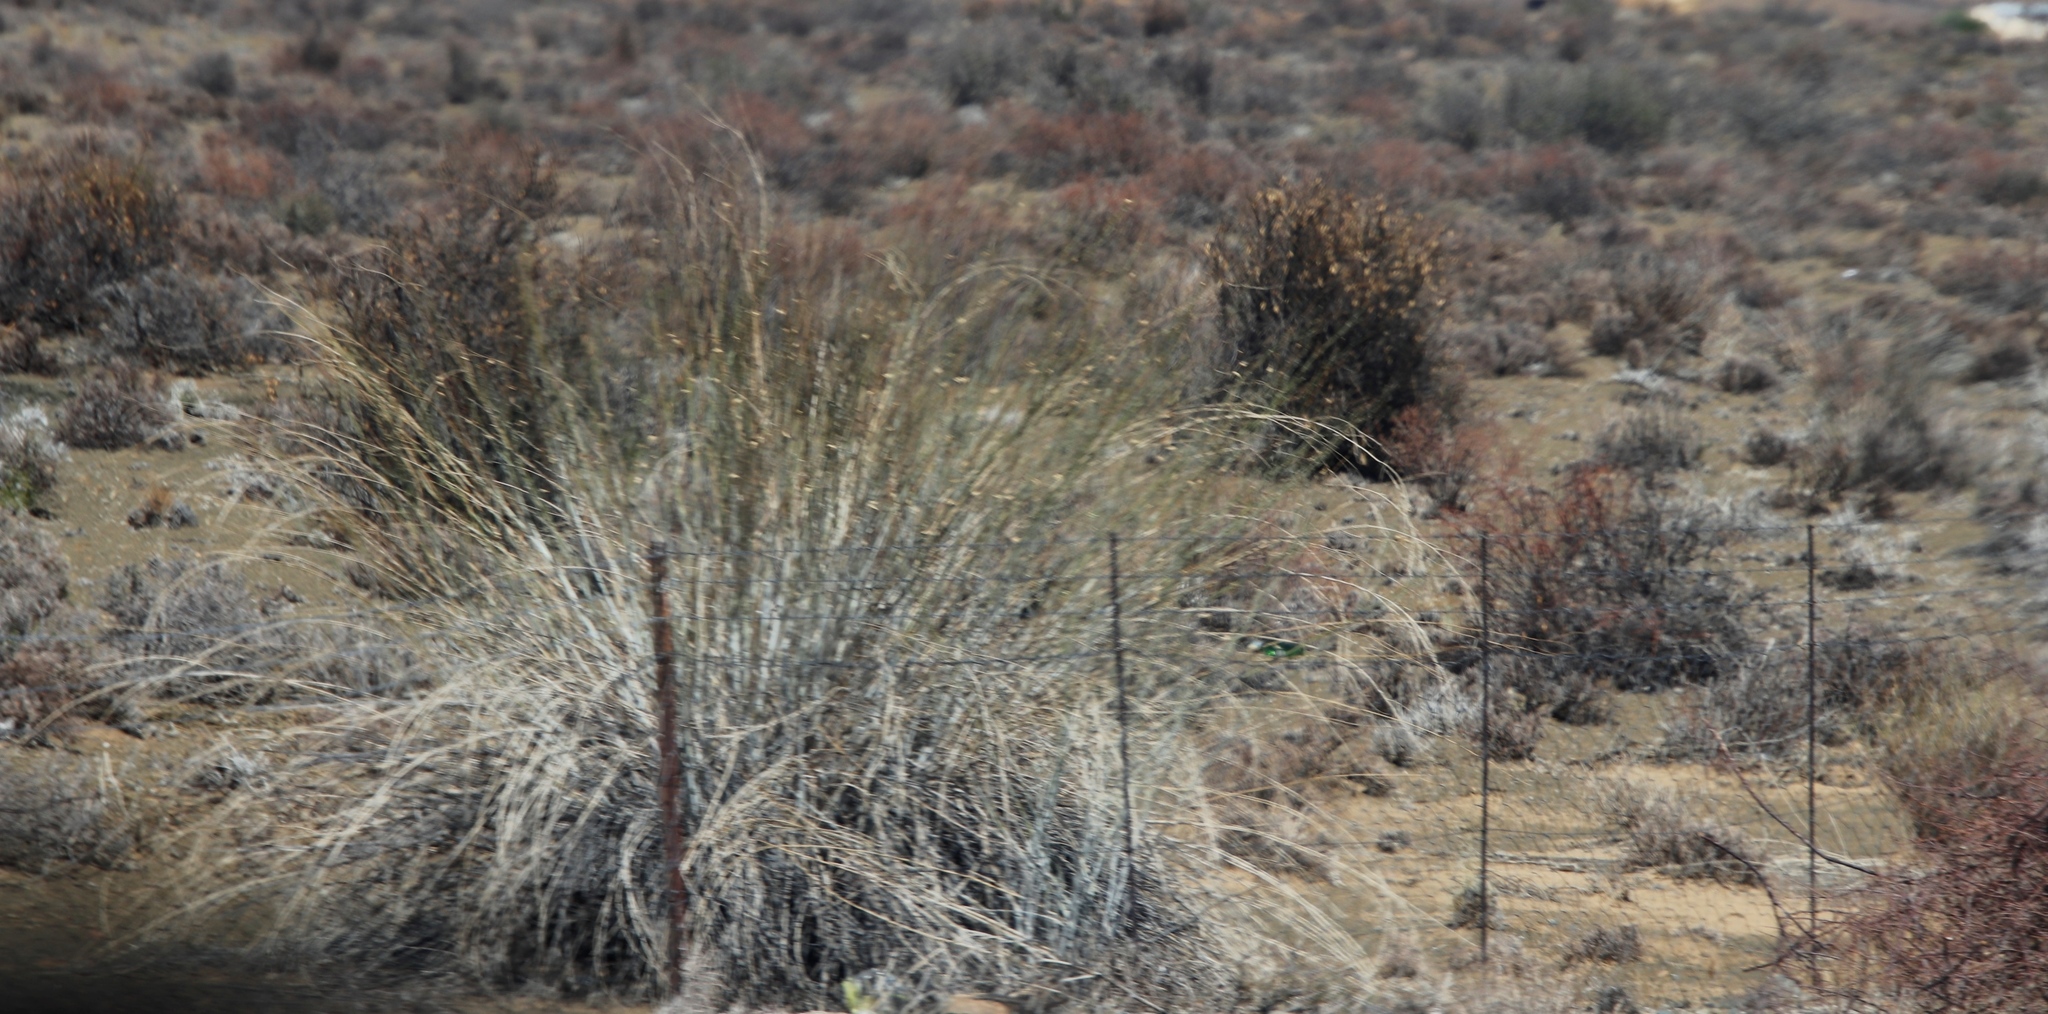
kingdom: Plantae
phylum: Tracheophyta
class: Magnoliopsida
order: Gentianales
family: Apocynaceae
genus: Gomphocarpus
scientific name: Gomphocarpus filiformis
